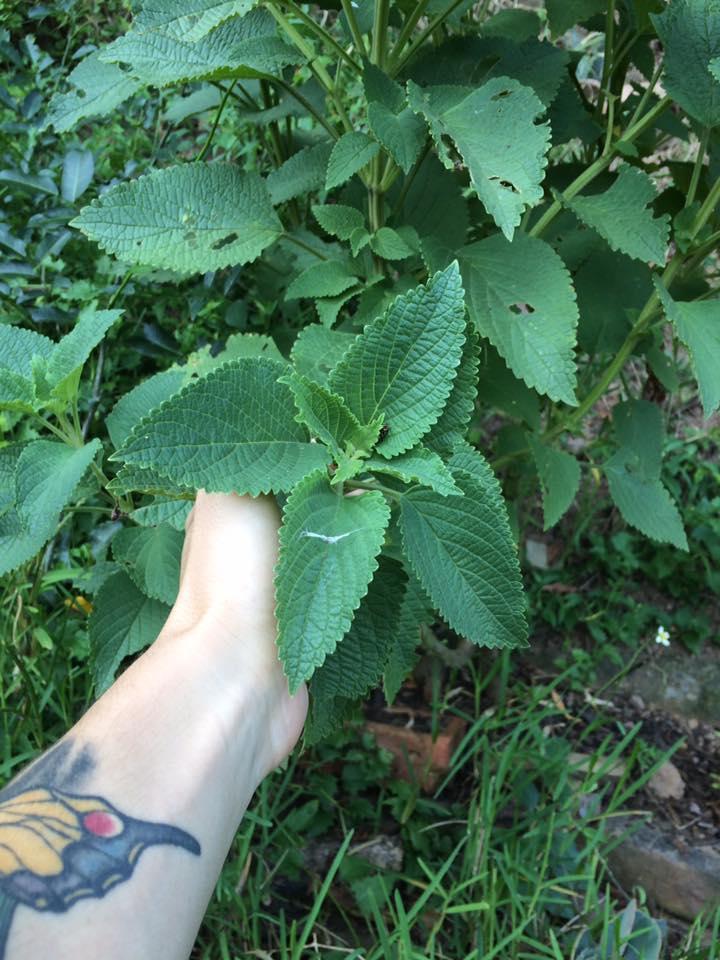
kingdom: Plantae
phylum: Tracheophyta
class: Magnoliopsida
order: Lamiales
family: Lamiaceae
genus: Plectranthus
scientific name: Plectranthus ecklonii
